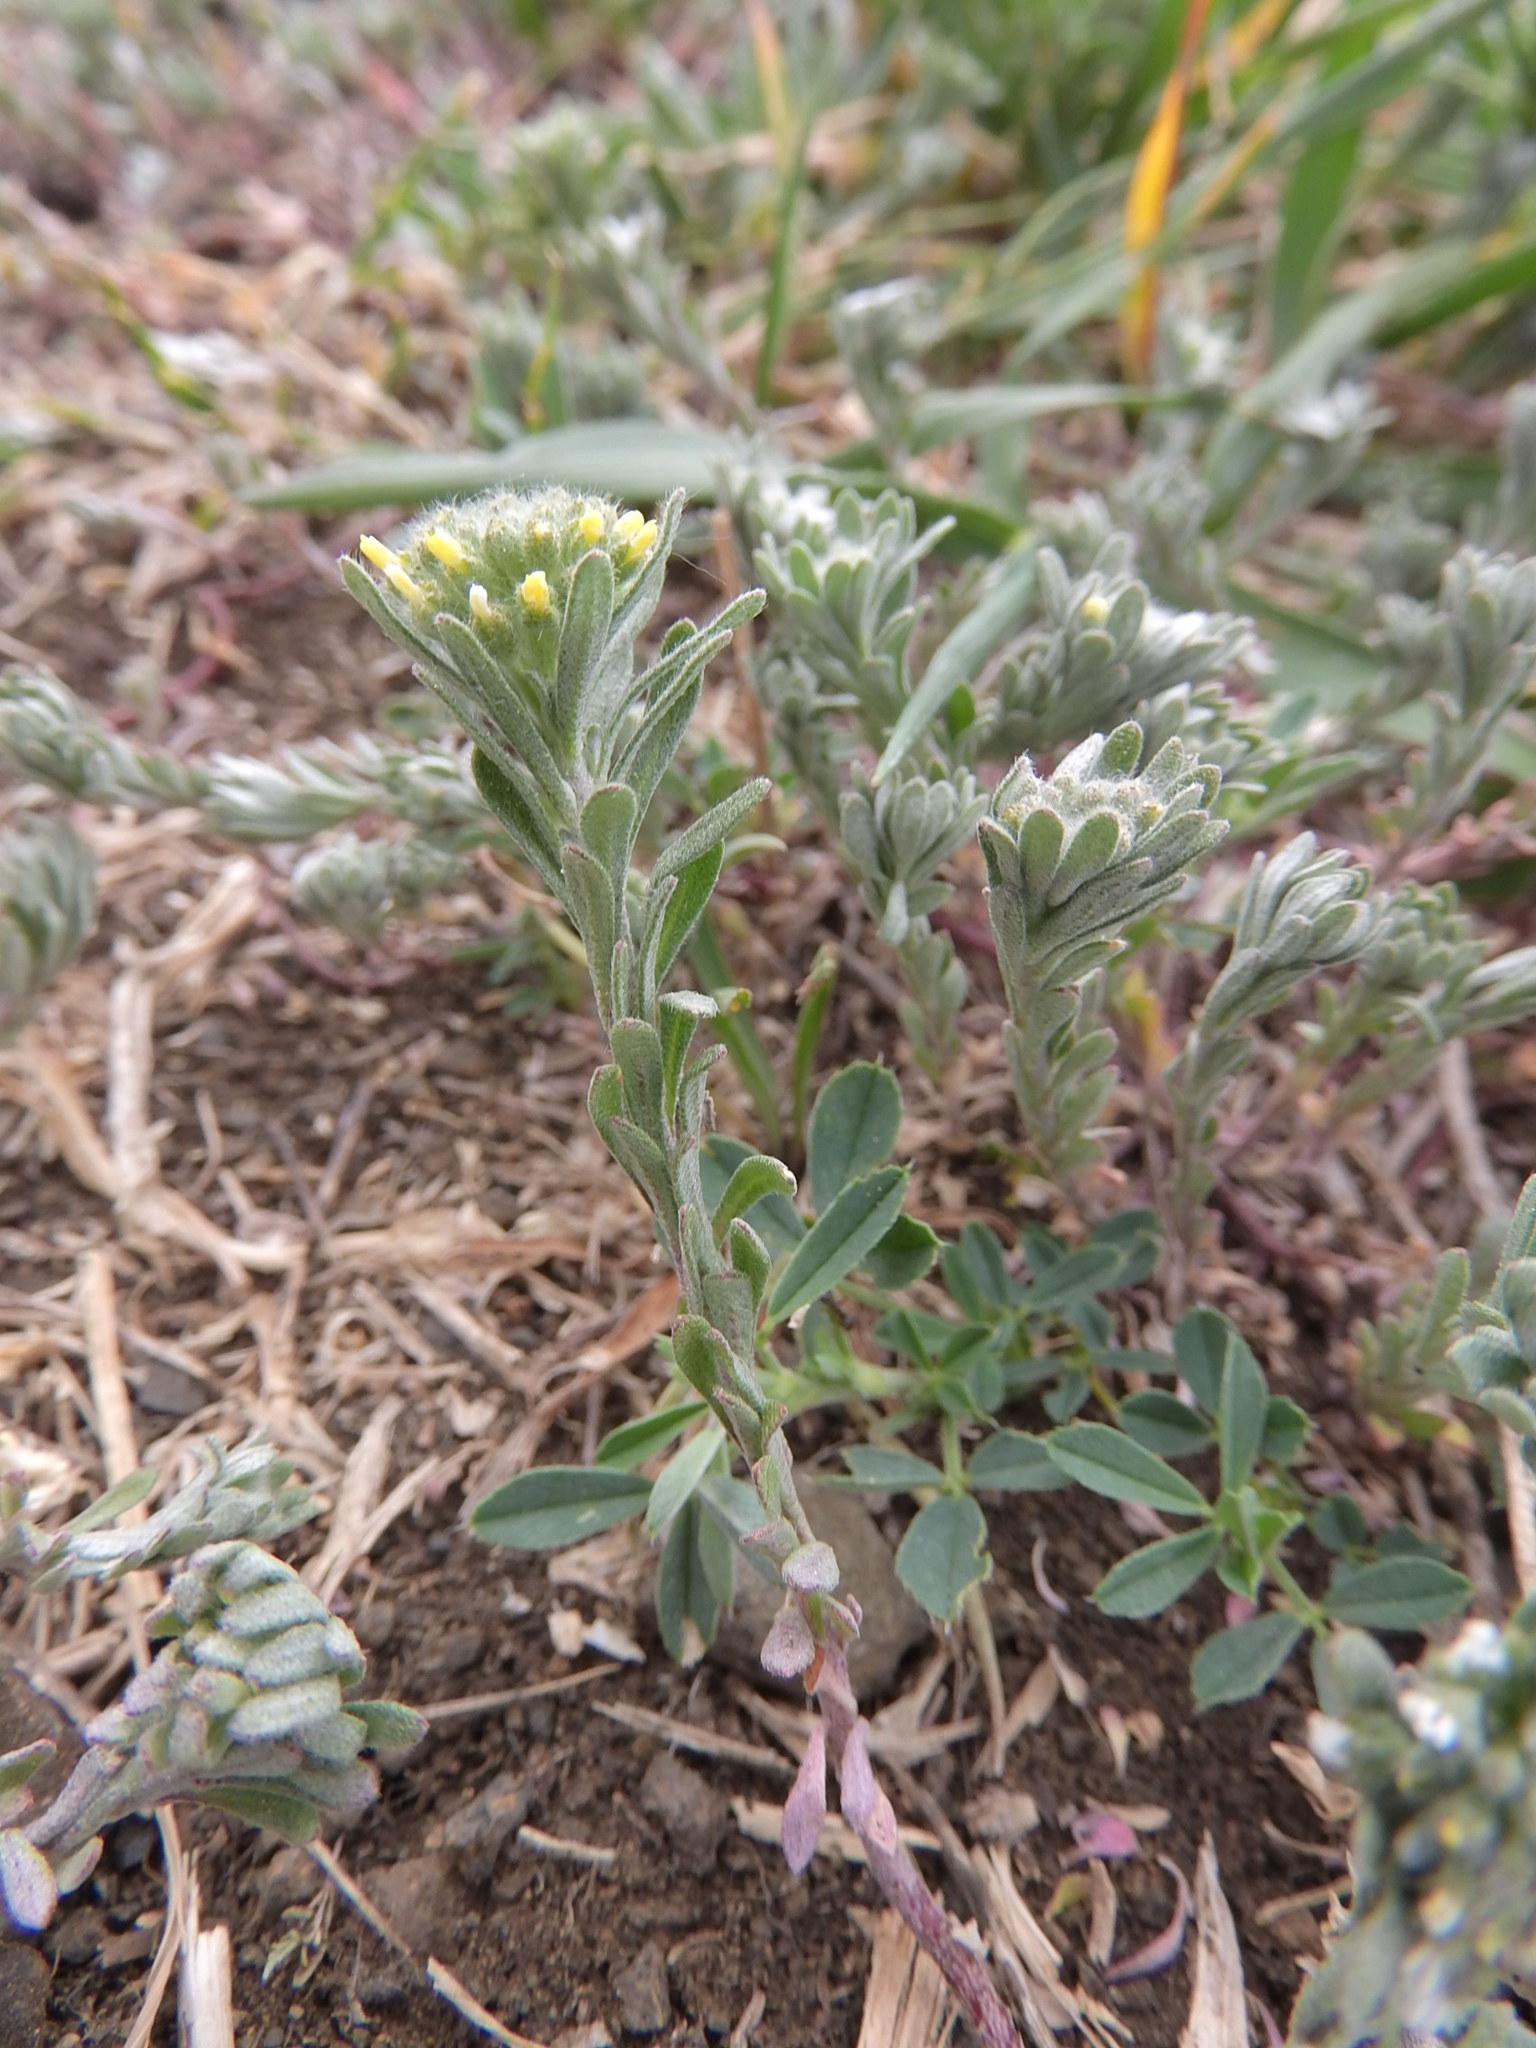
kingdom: Plantae
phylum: Tracheophyta
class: Magnoliopsida
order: Brassicales
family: Brassicaceae
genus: Alyssum
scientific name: Alyssum alyssoides
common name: Small alison
